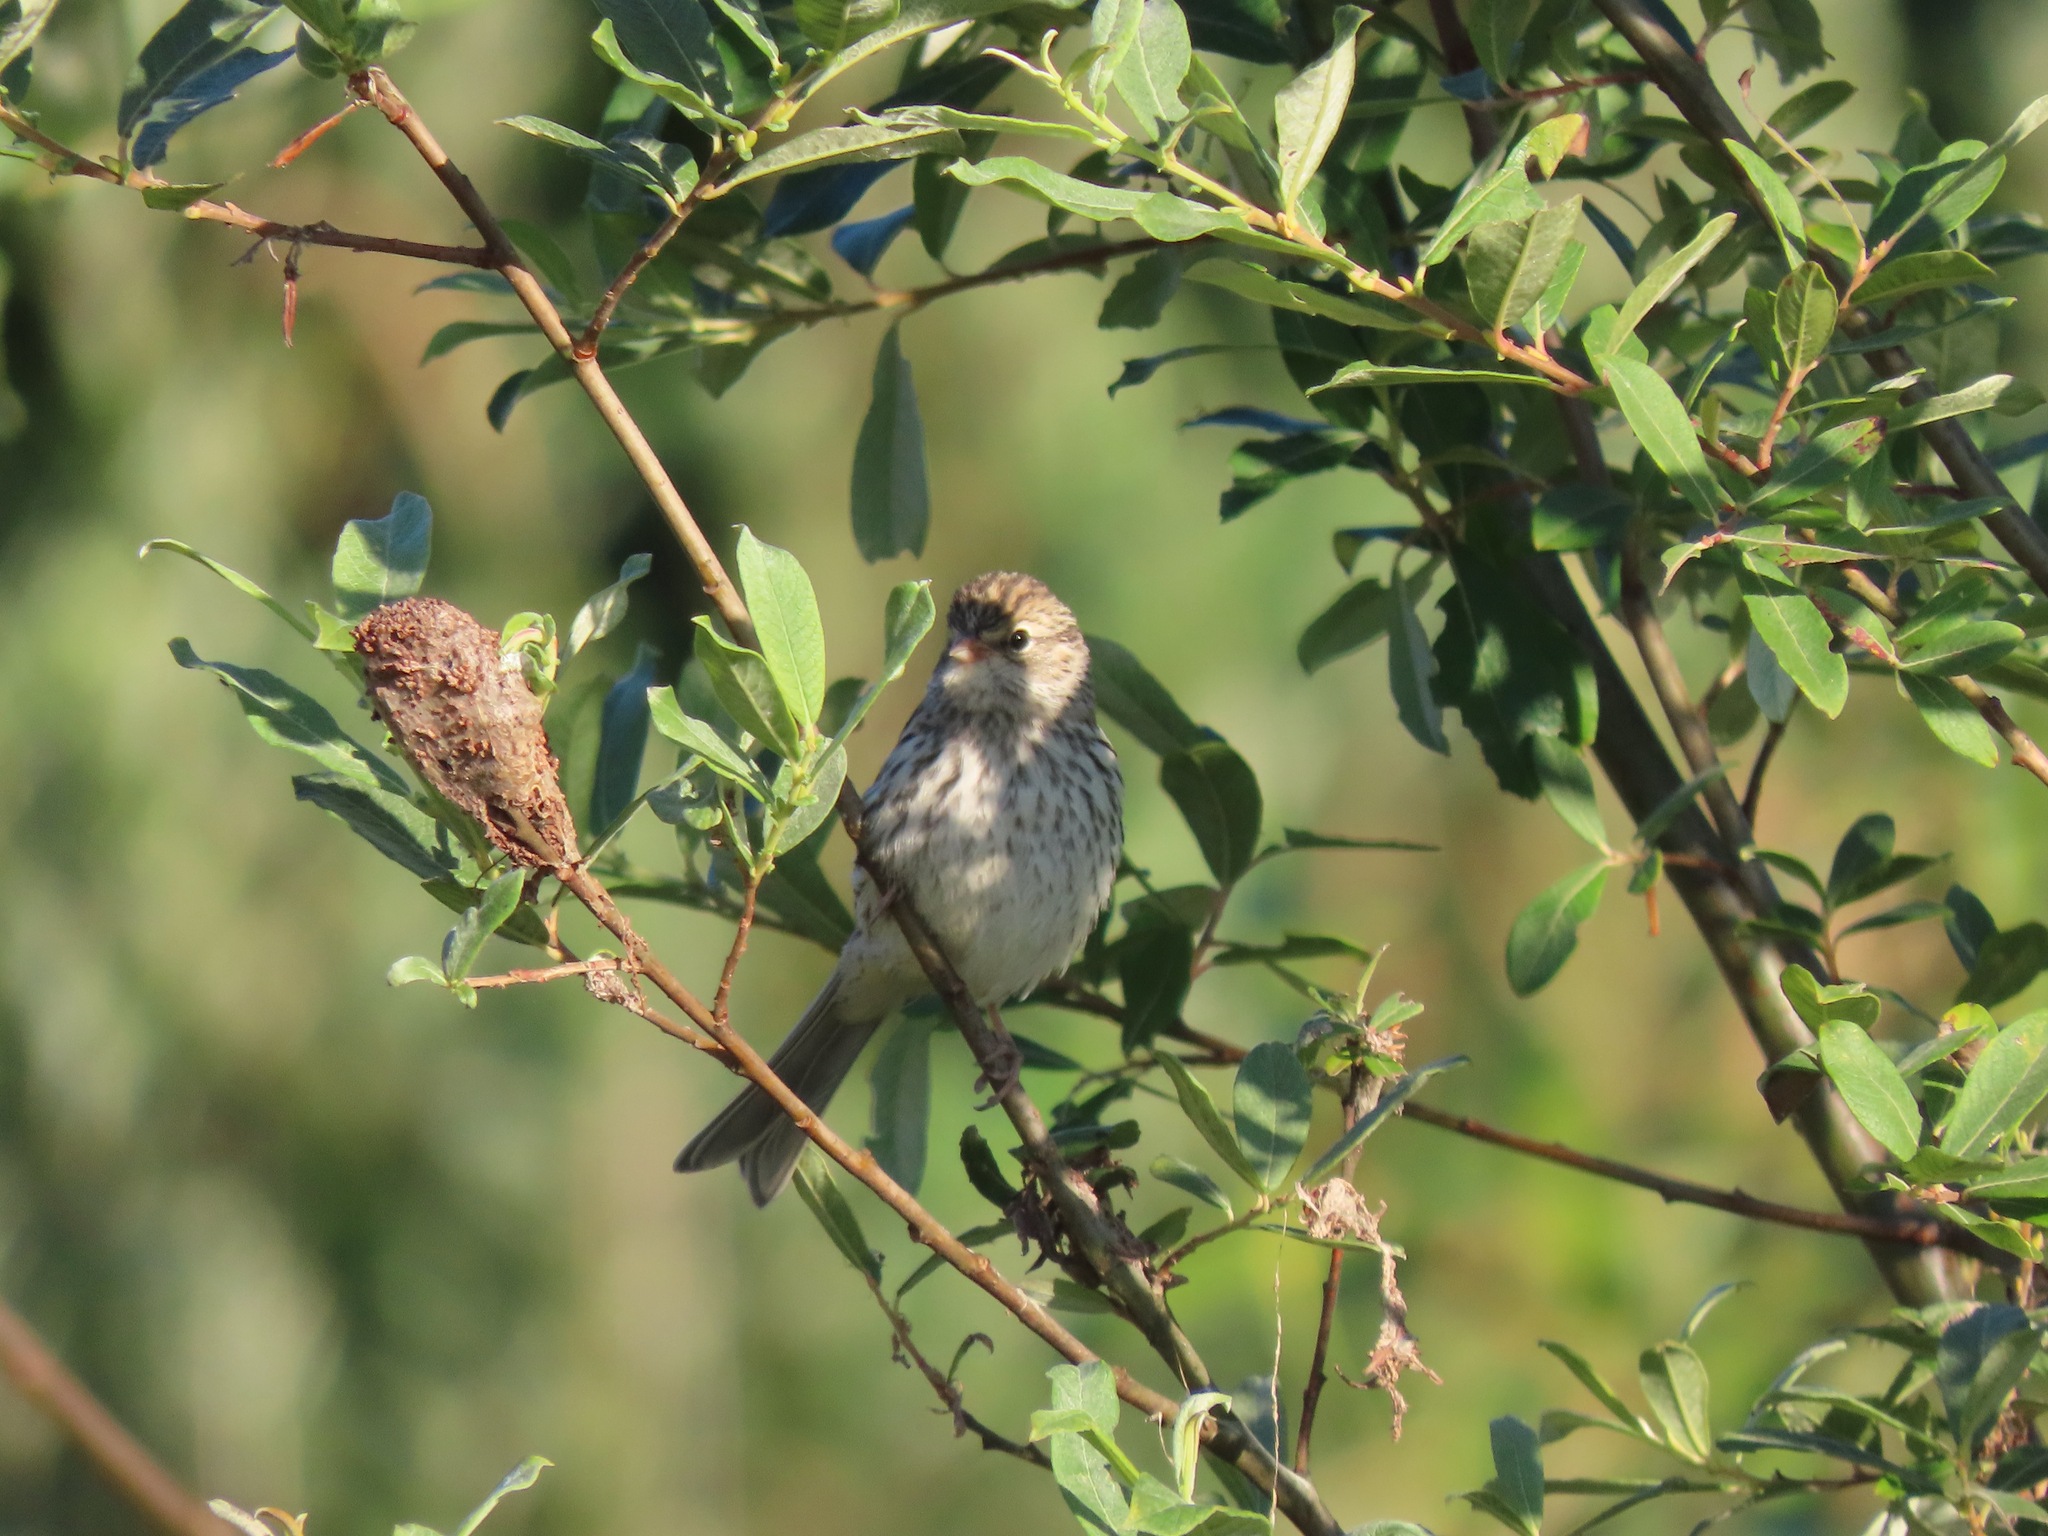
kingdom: Animalia
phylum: Chordata
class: Aves
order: Passeriformes
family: Passerellidae
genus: Spizella
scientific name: Spizella passerina
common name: Chipping sparrow
